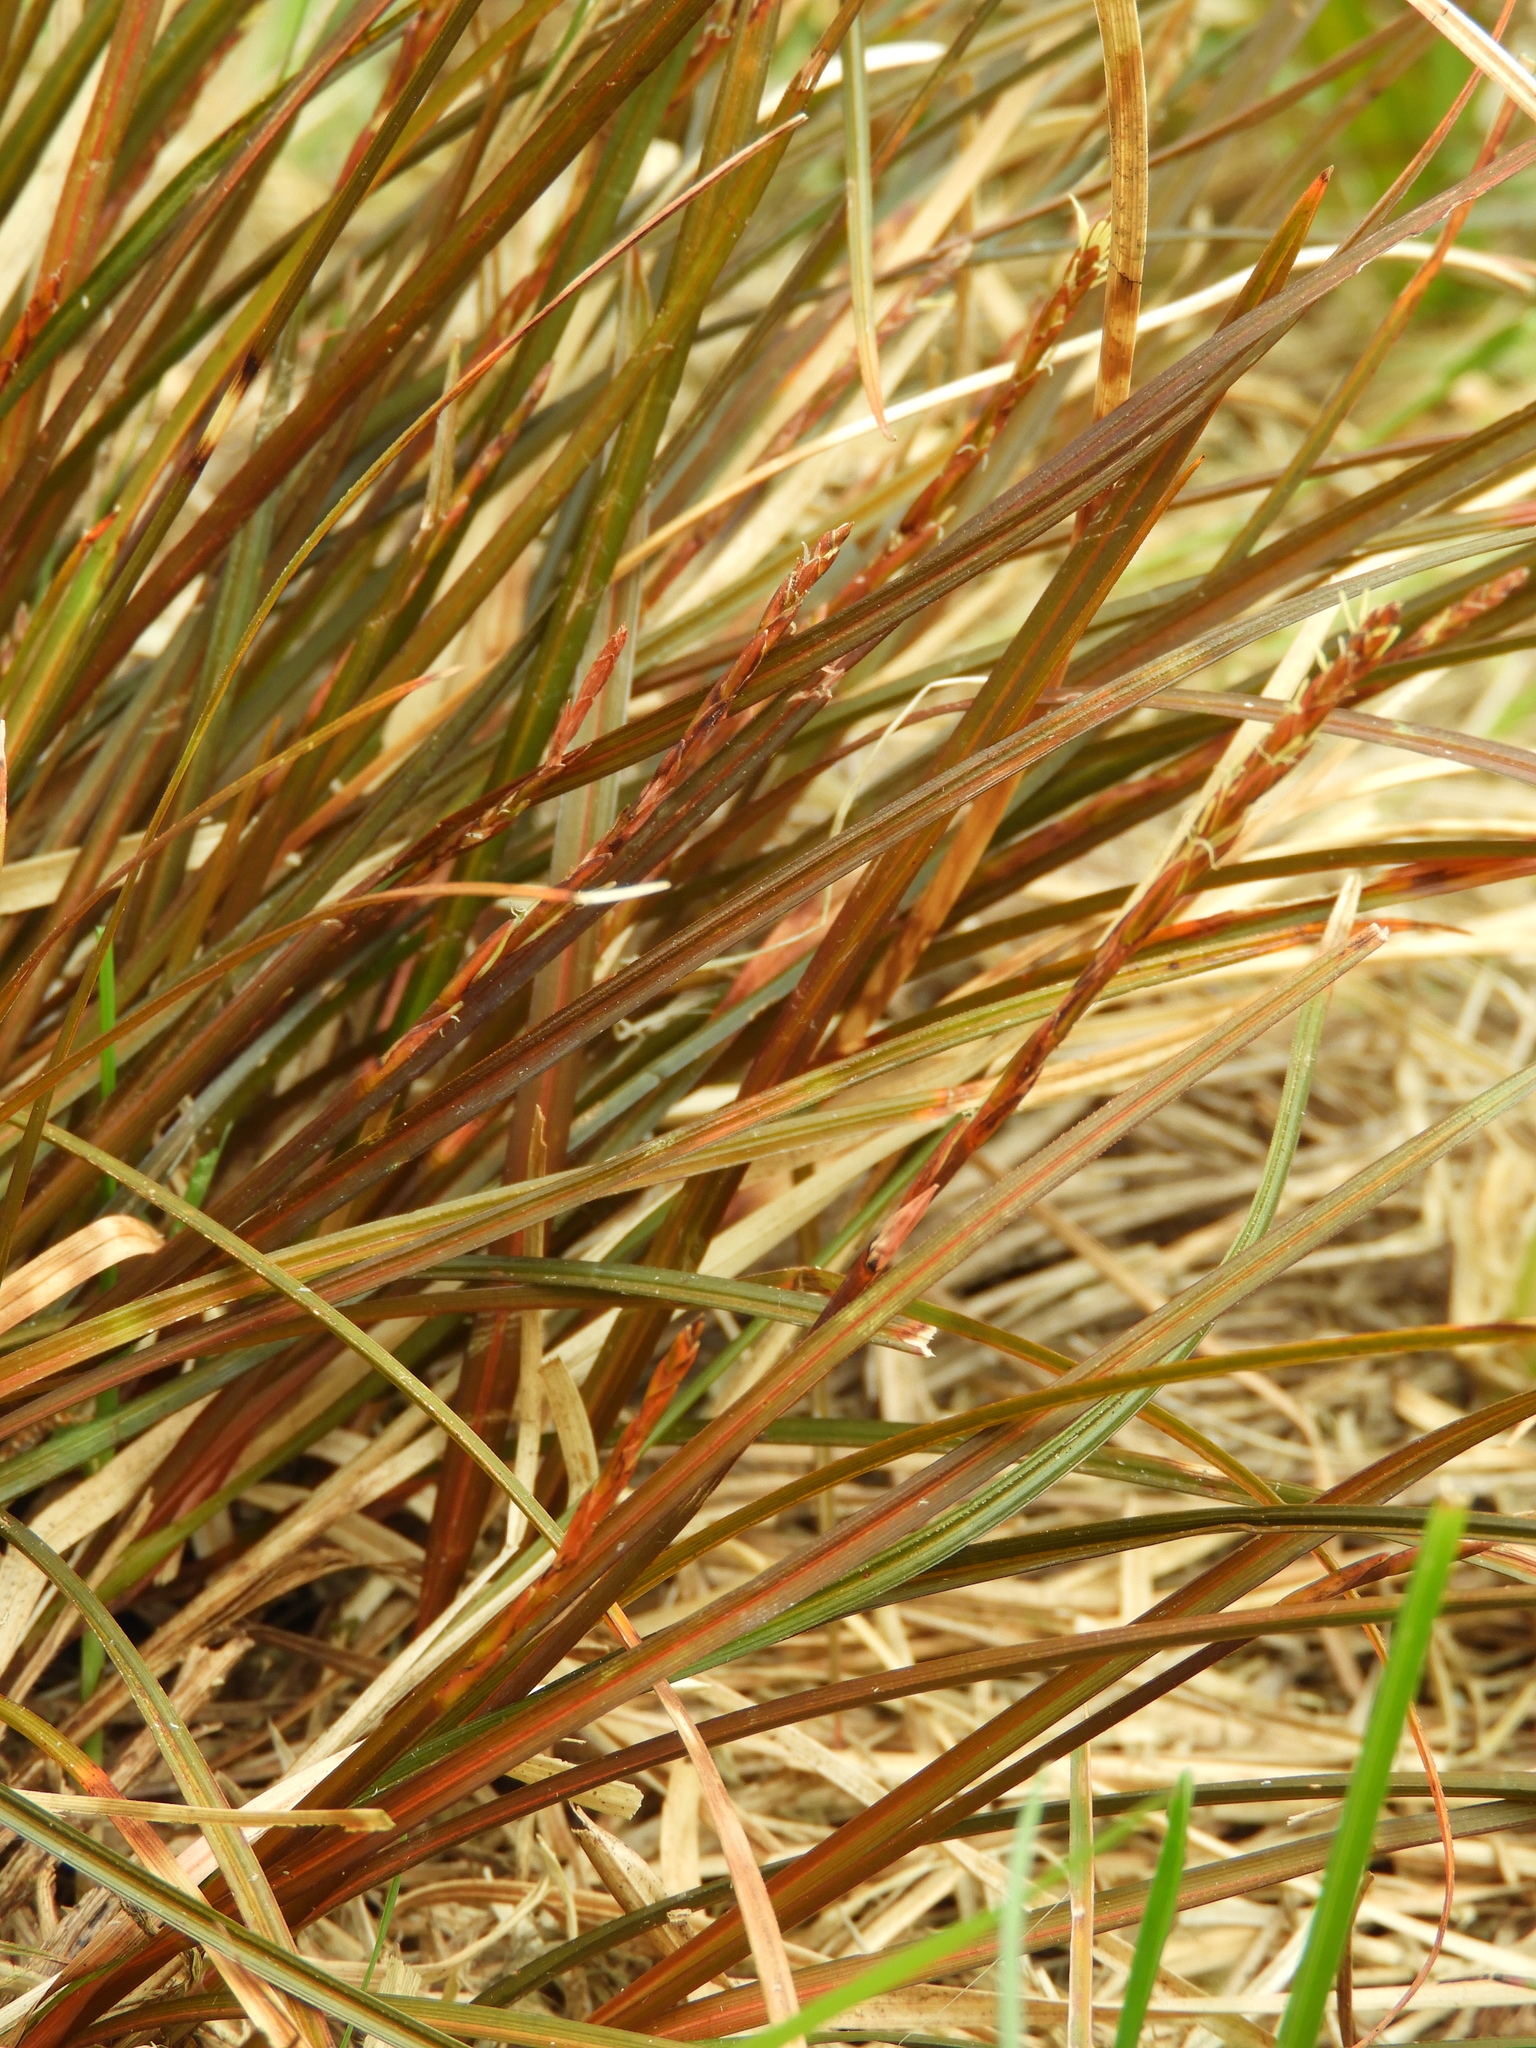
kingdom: Plantae
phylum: Tracheophyta
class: Liliopsida
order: Poales
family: Cyperaceae
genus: Carex
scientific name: Carex punicea
